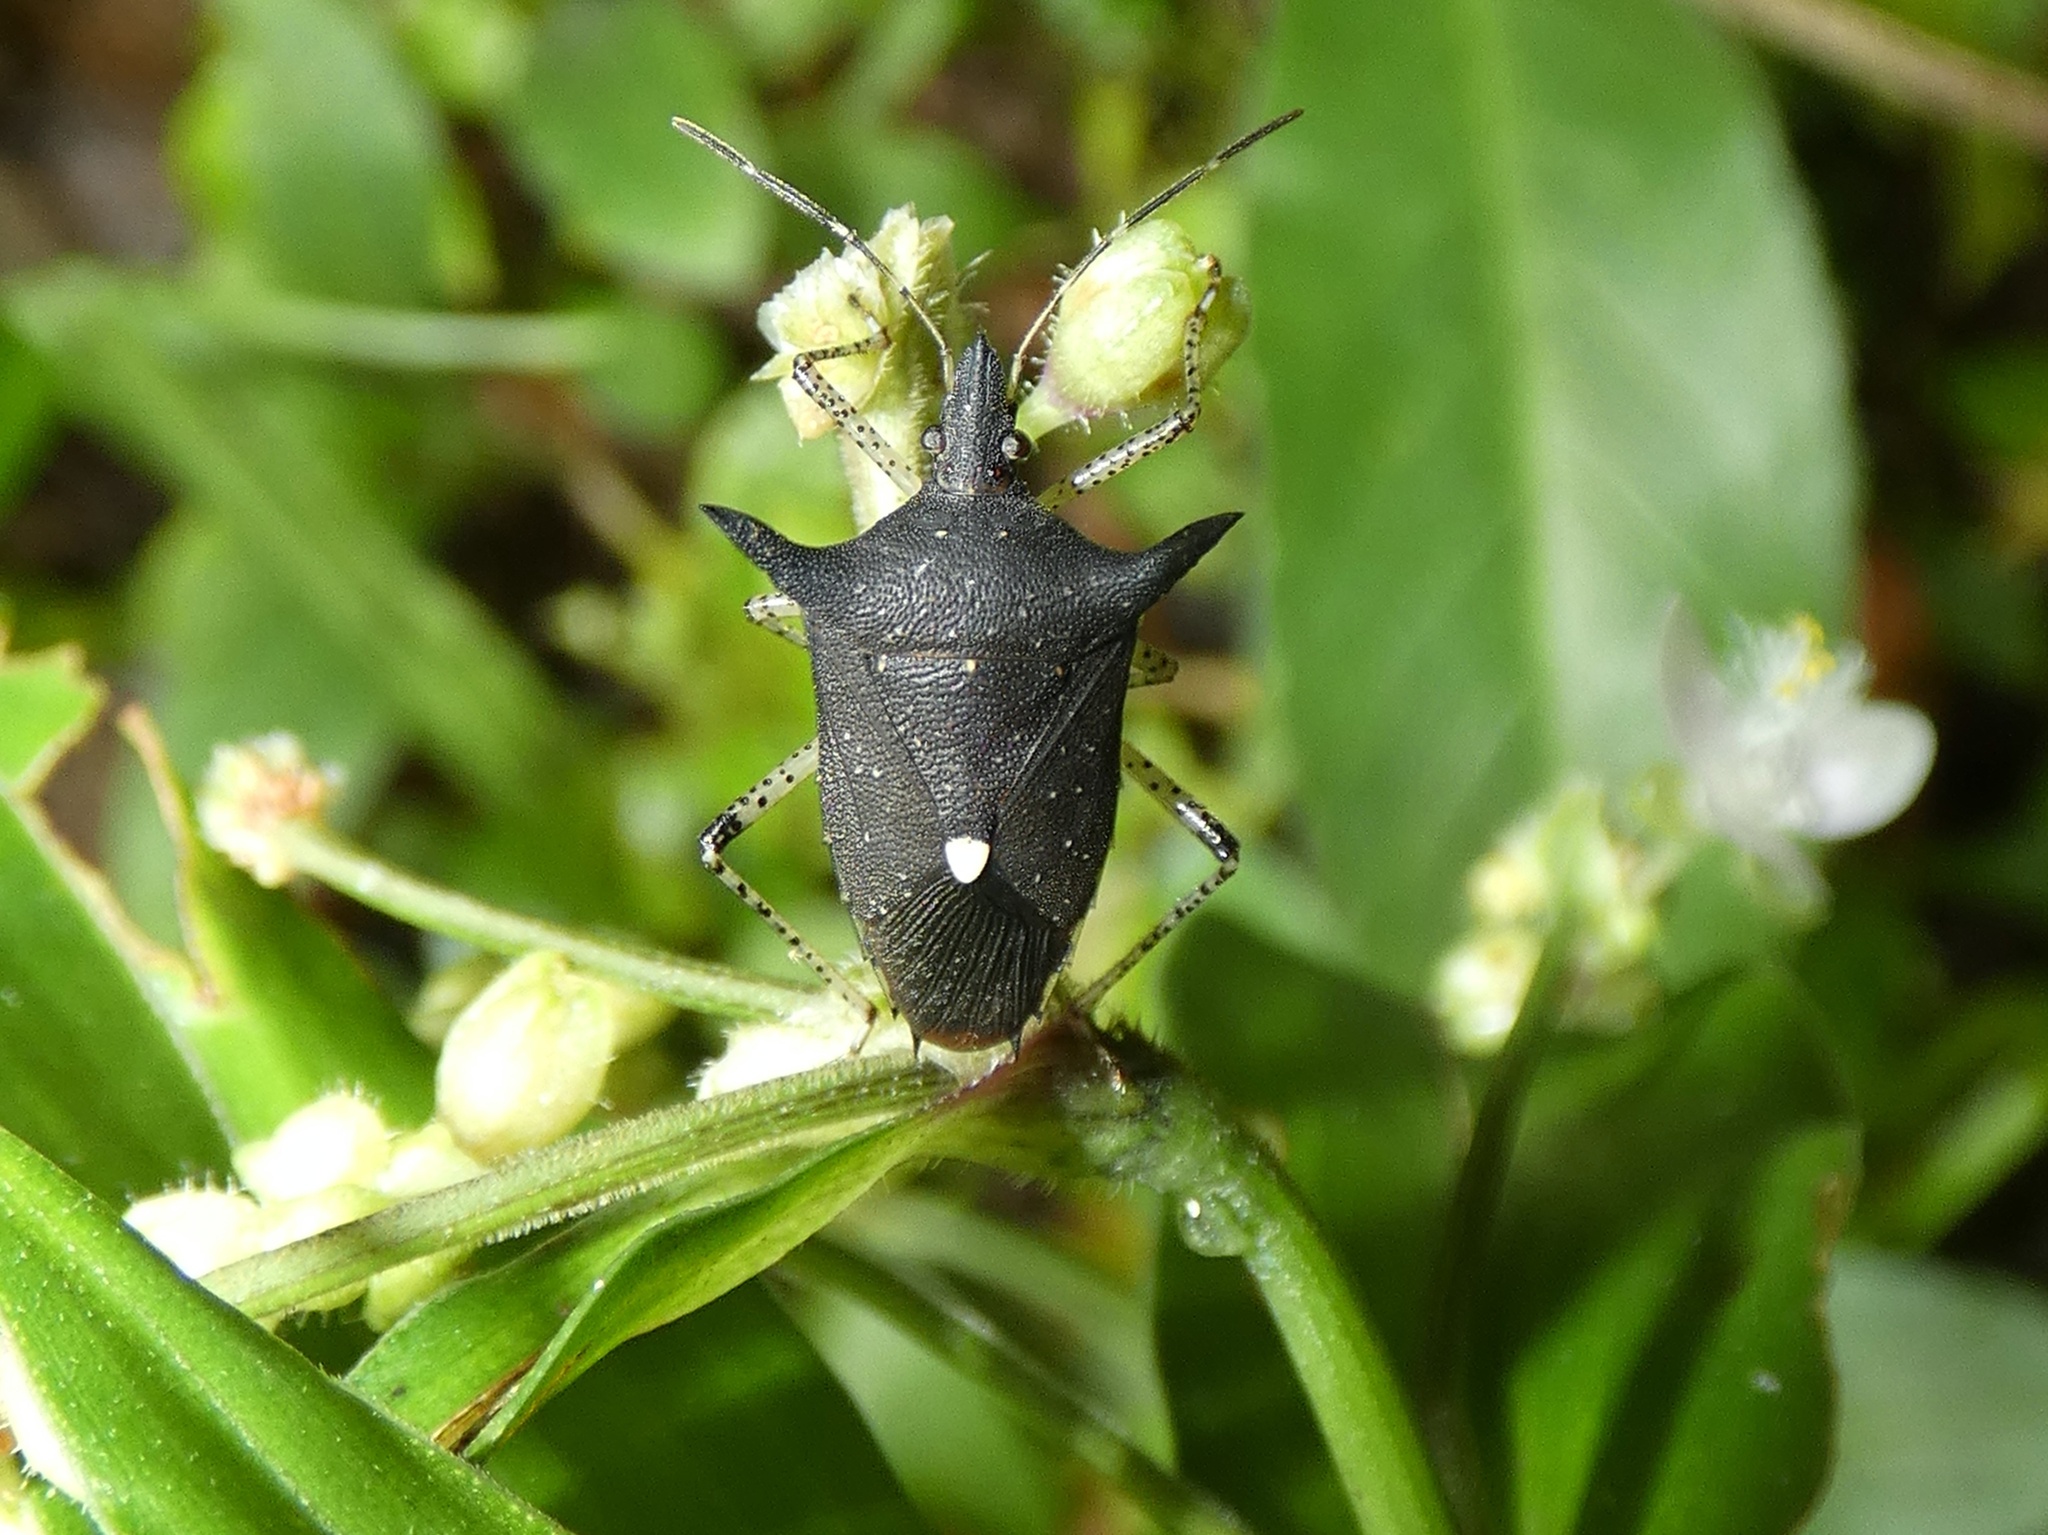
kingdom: Animalia
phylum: Arthropoda
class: Insecta
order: Hemiptera
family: Pentatomidae
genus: Proxys
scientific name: Proxys victor
